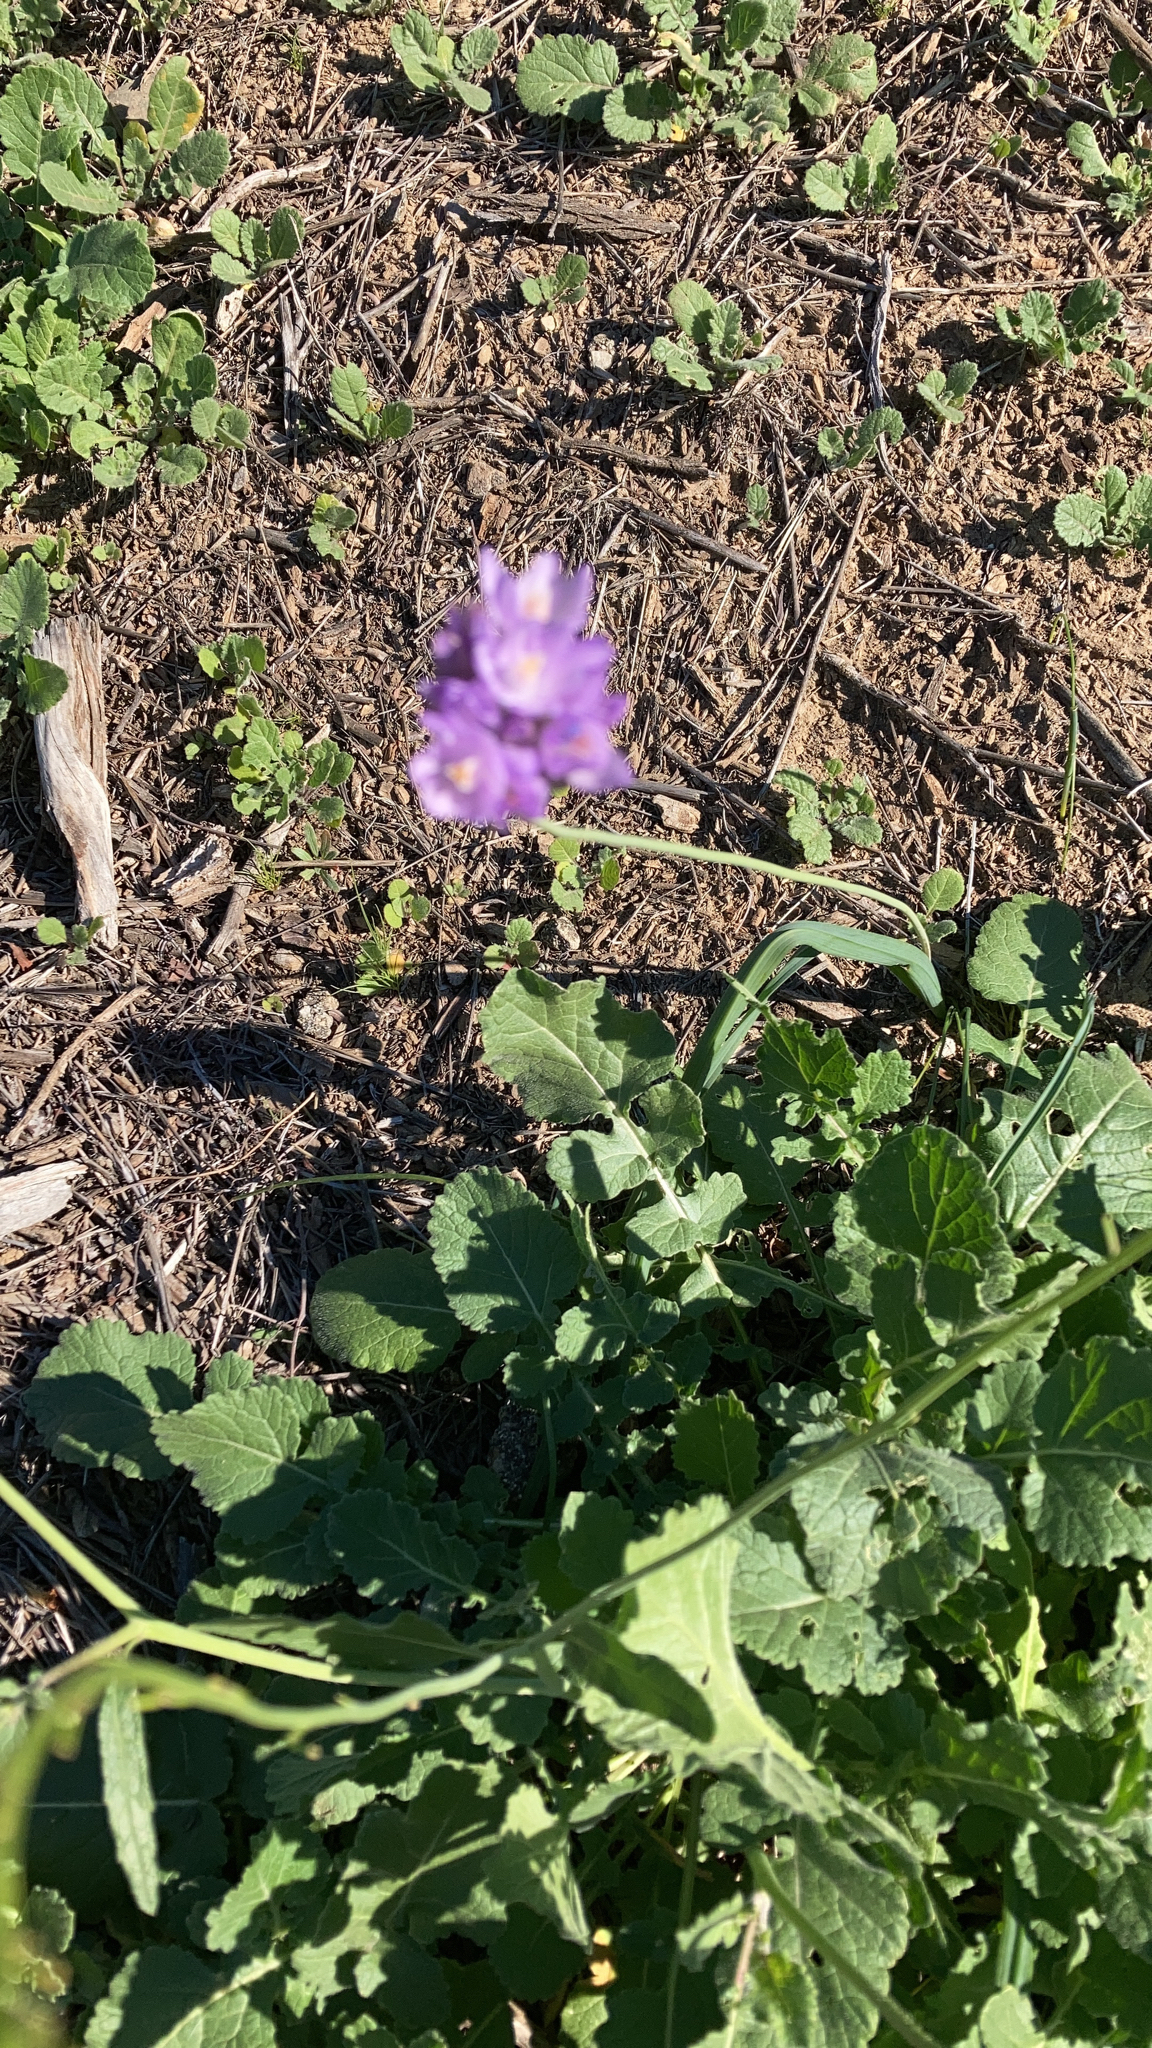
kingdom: Plantae
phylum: Tracheophyta
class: Liliopsida
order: Asparagales
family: Asparagaceae
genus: Dipterostemon
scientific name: Dipterostemon capitatus
